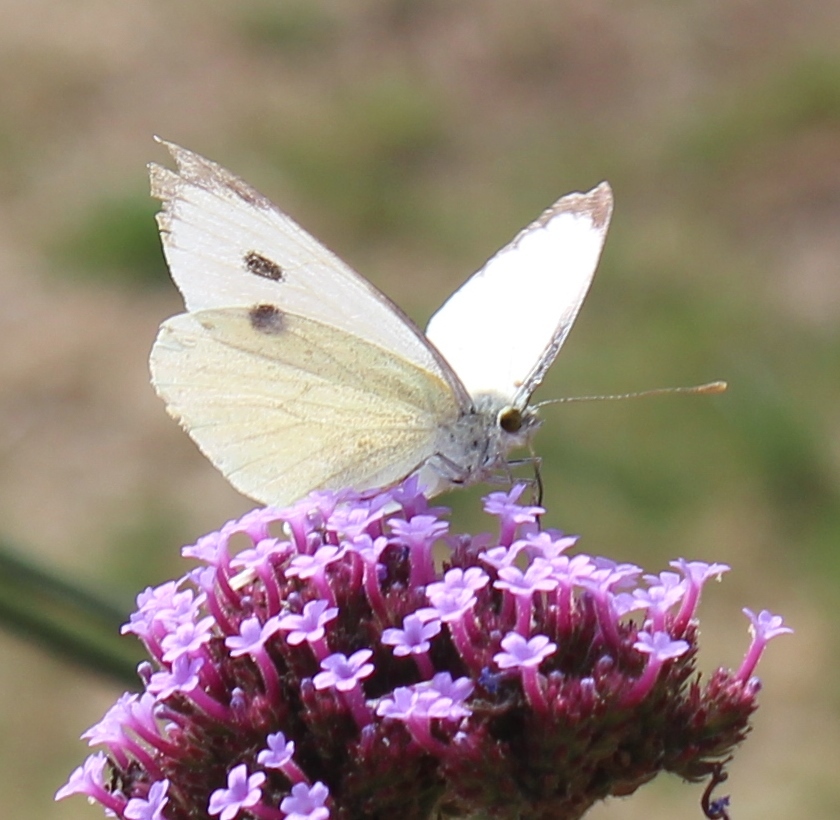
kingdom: Animalia
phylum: Arthropoda
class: Insecta
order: Lepidoptera
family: Pieridae
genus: Pieris
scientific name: Pieris brassicae
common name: Large white
